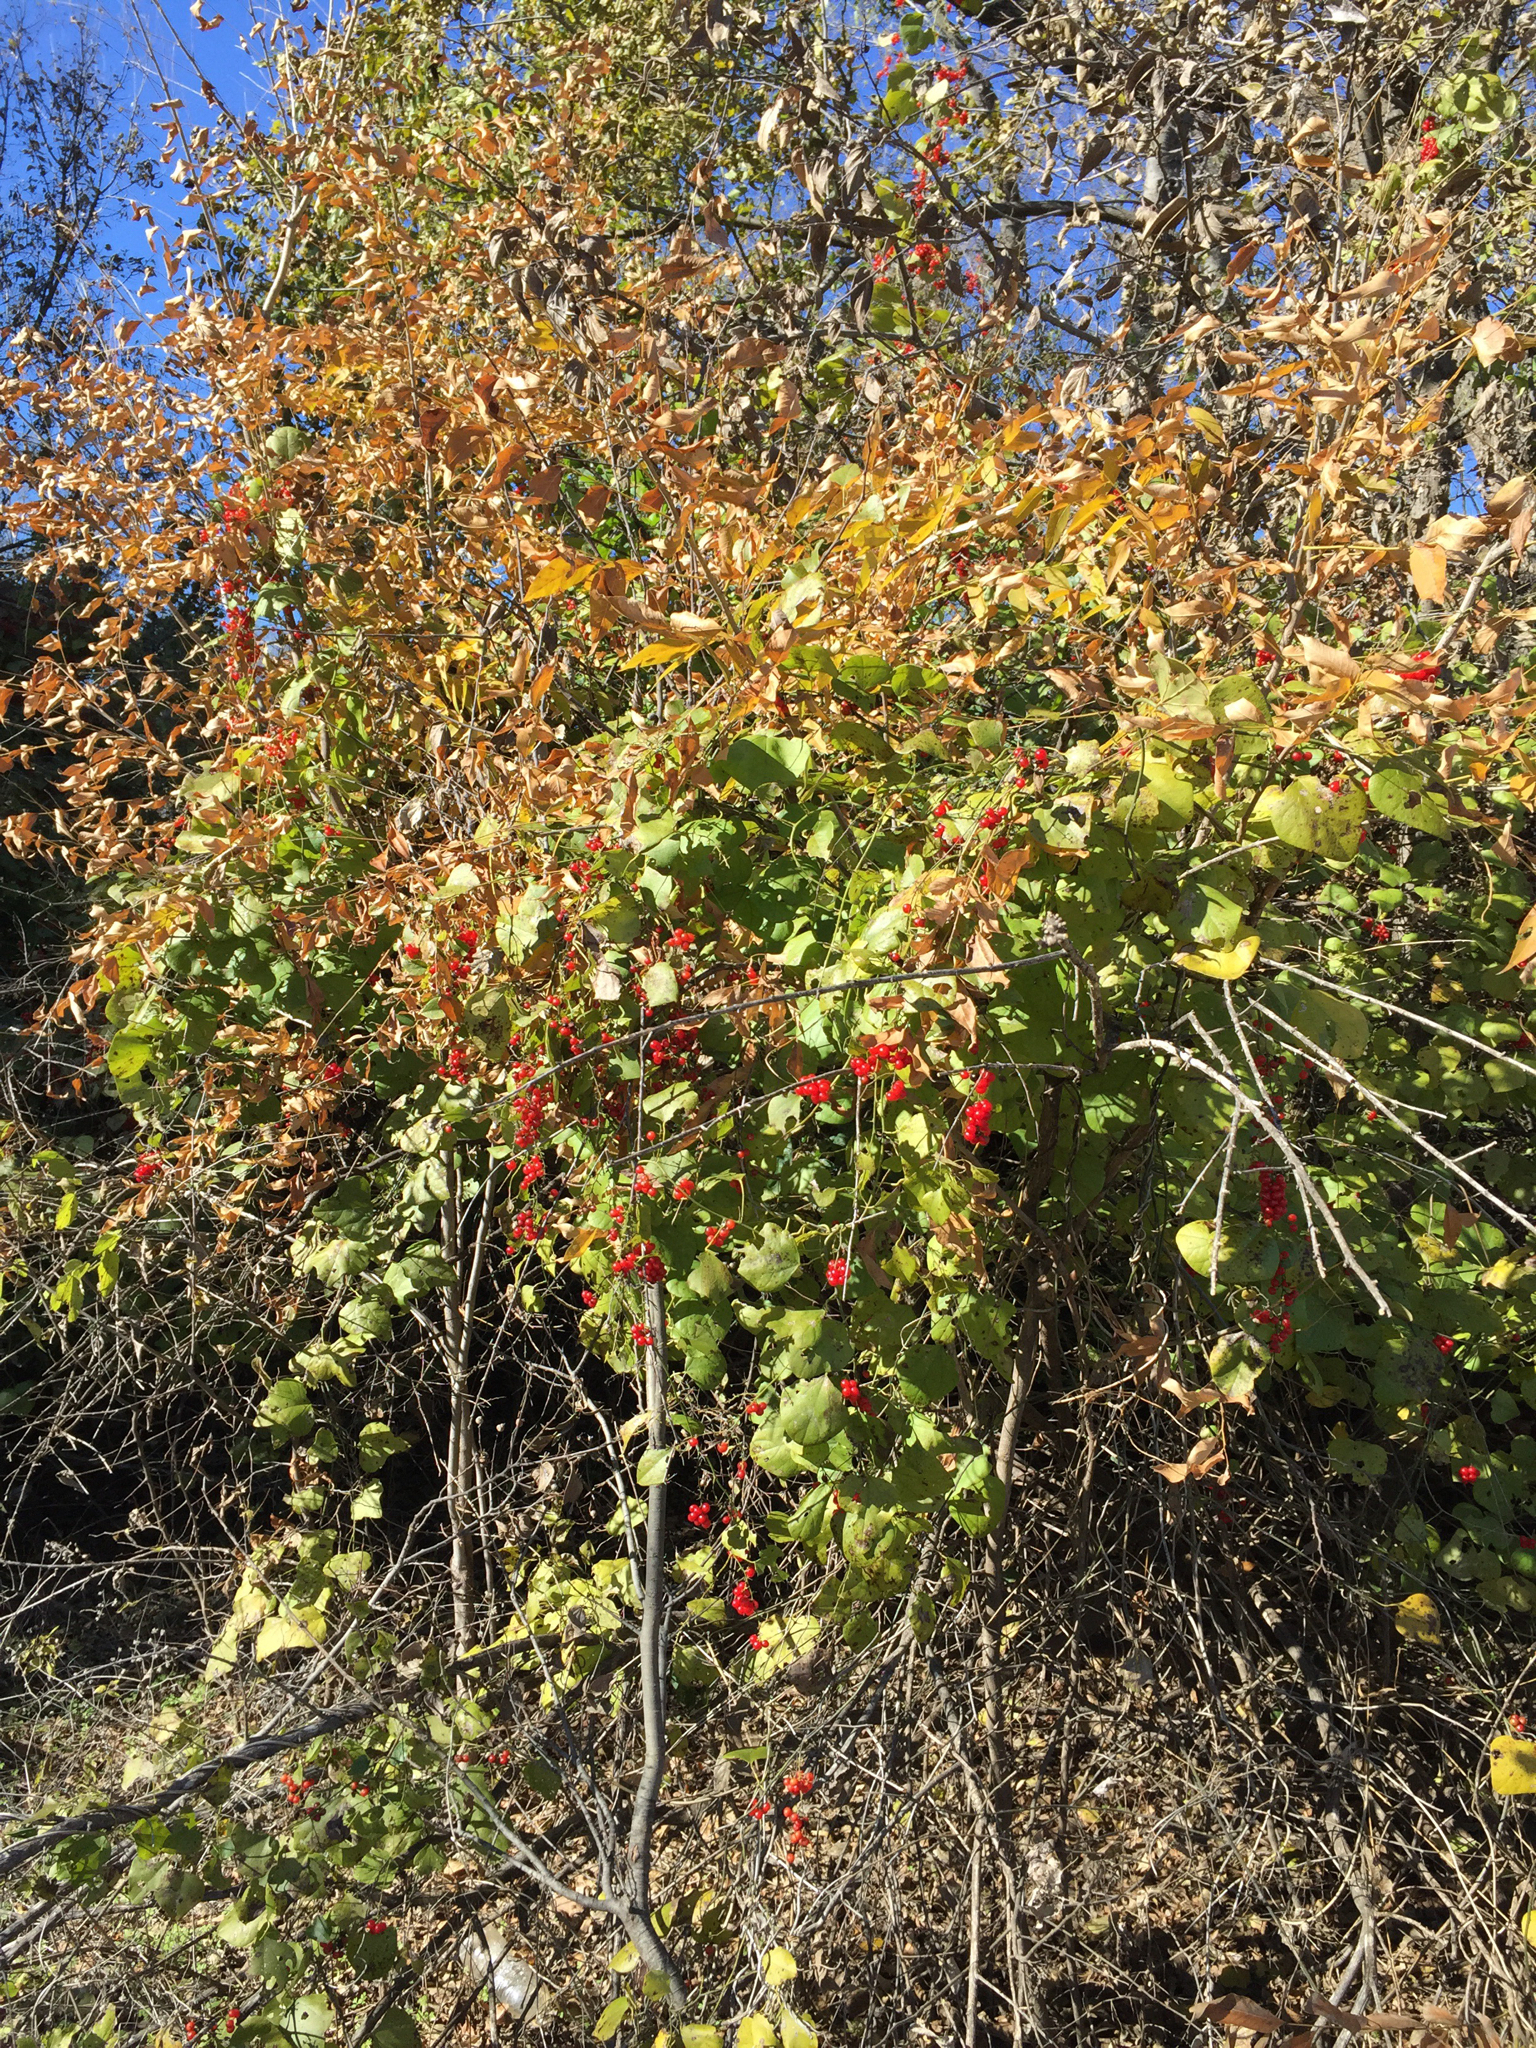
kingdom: Plantae
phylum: Tracheophyta
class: Magnoliopsida
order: Ranunculales
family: Menispermaceae
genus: Cocculus
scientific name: Cocculus carolinus
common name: Carolina moonseed
